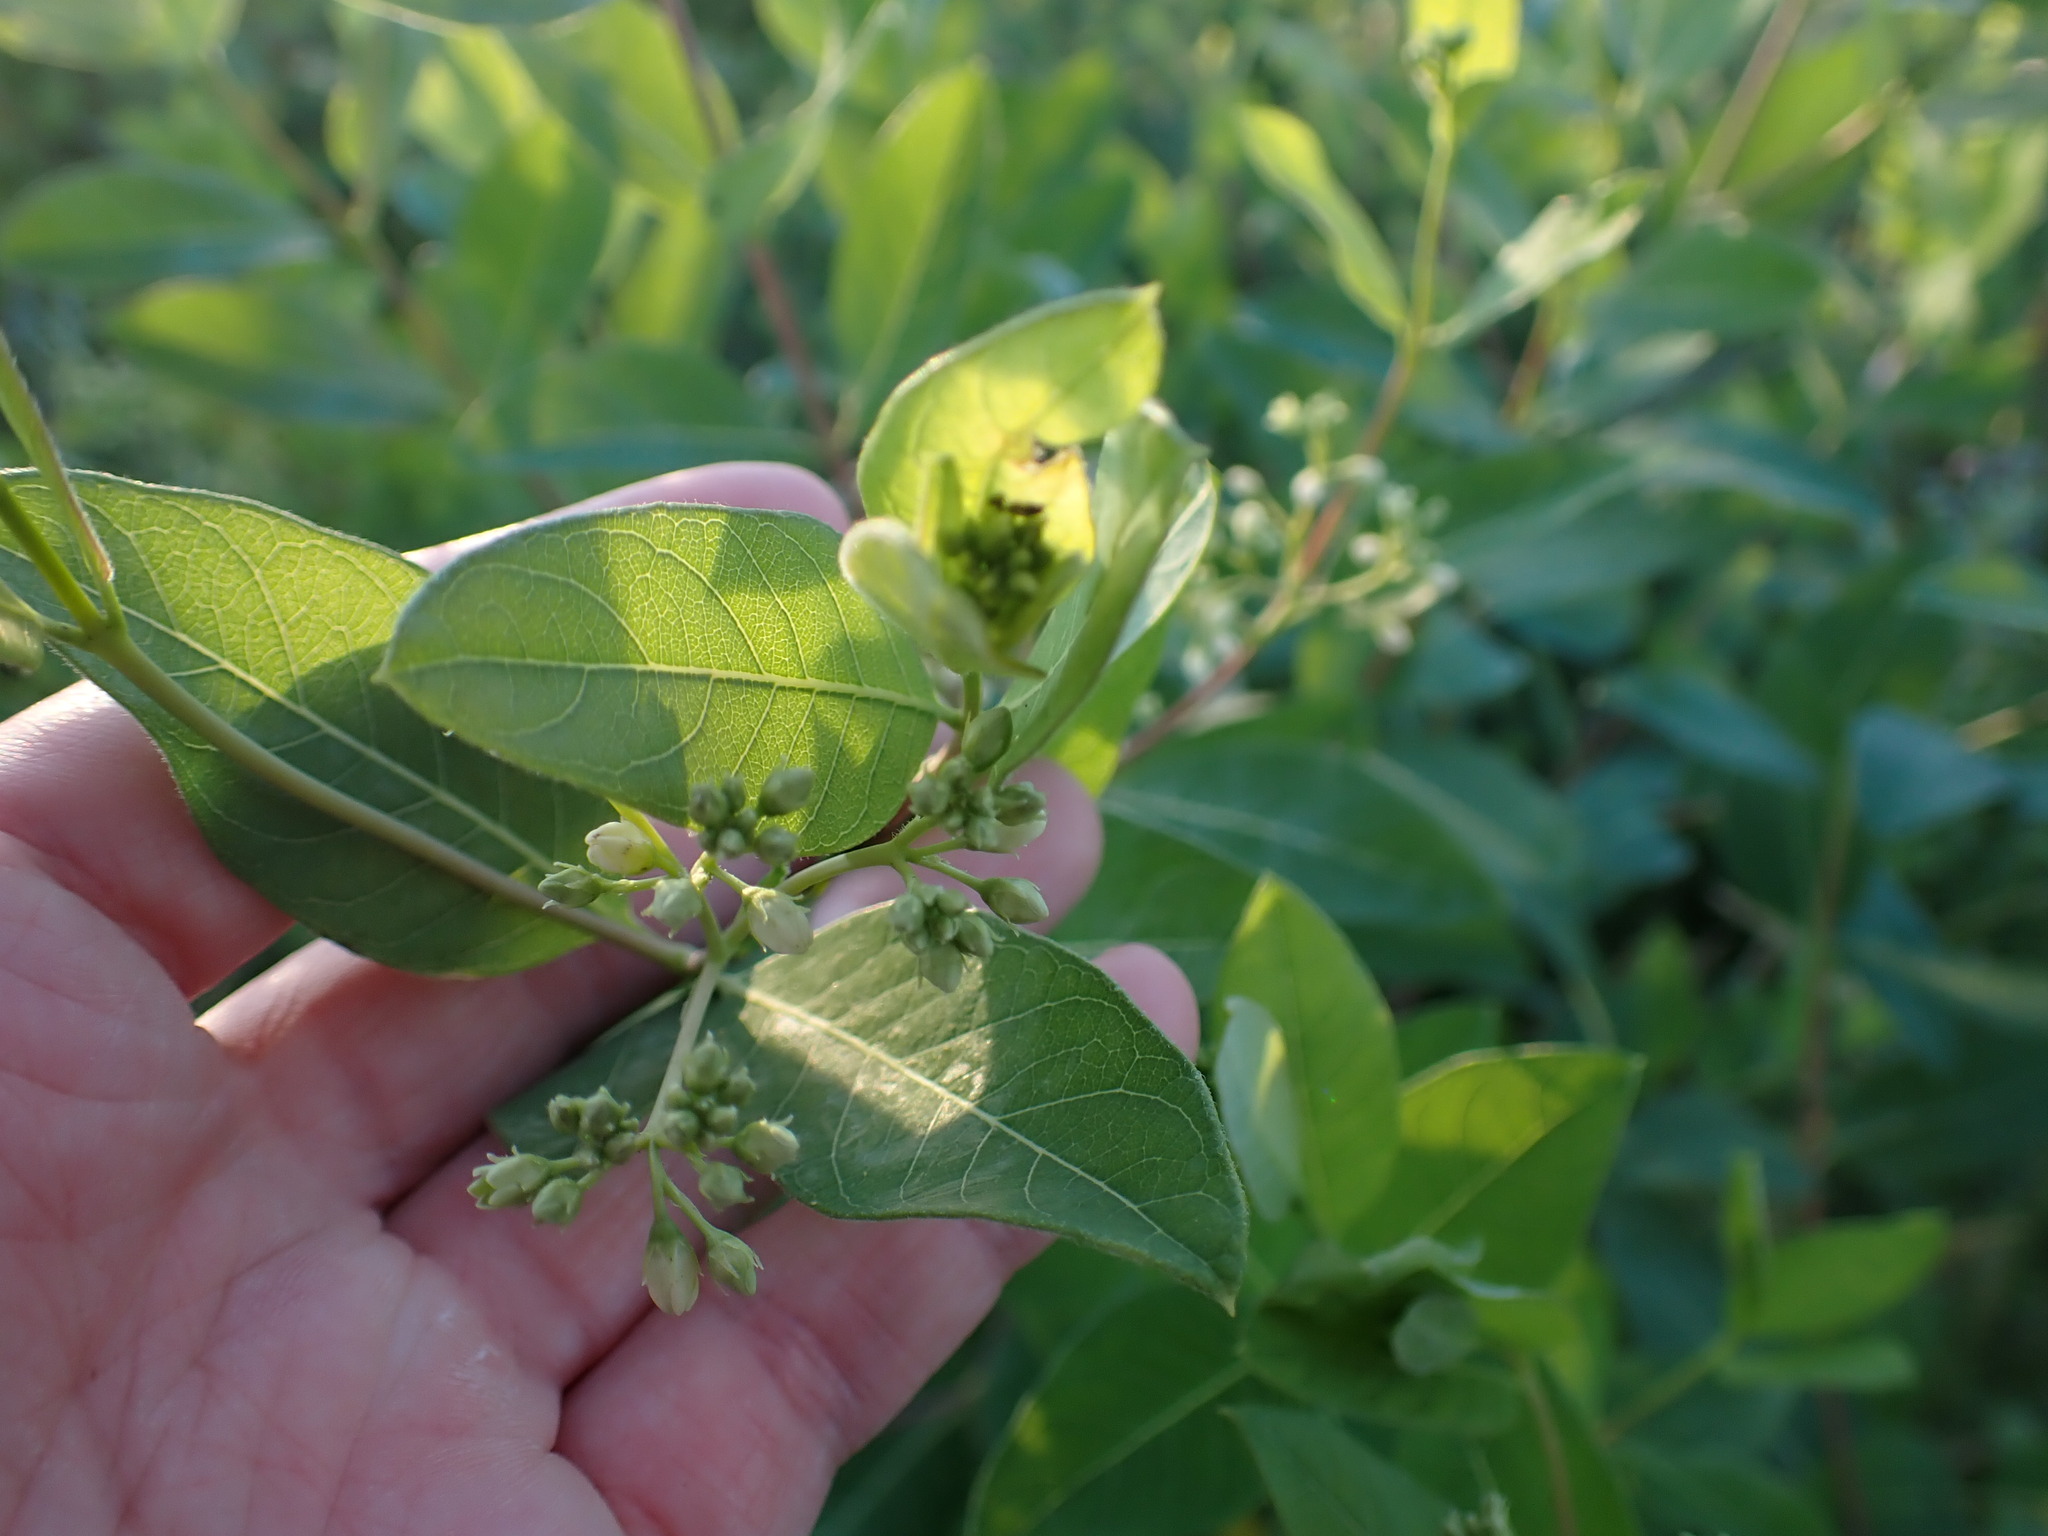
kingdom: Plantae
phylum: Tracheophyta
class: Magnoliopsida
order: Gentianales
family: Apocynaceae
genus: Apocynum
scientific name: Apocynum cannabinum
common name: Hemp dogbane
